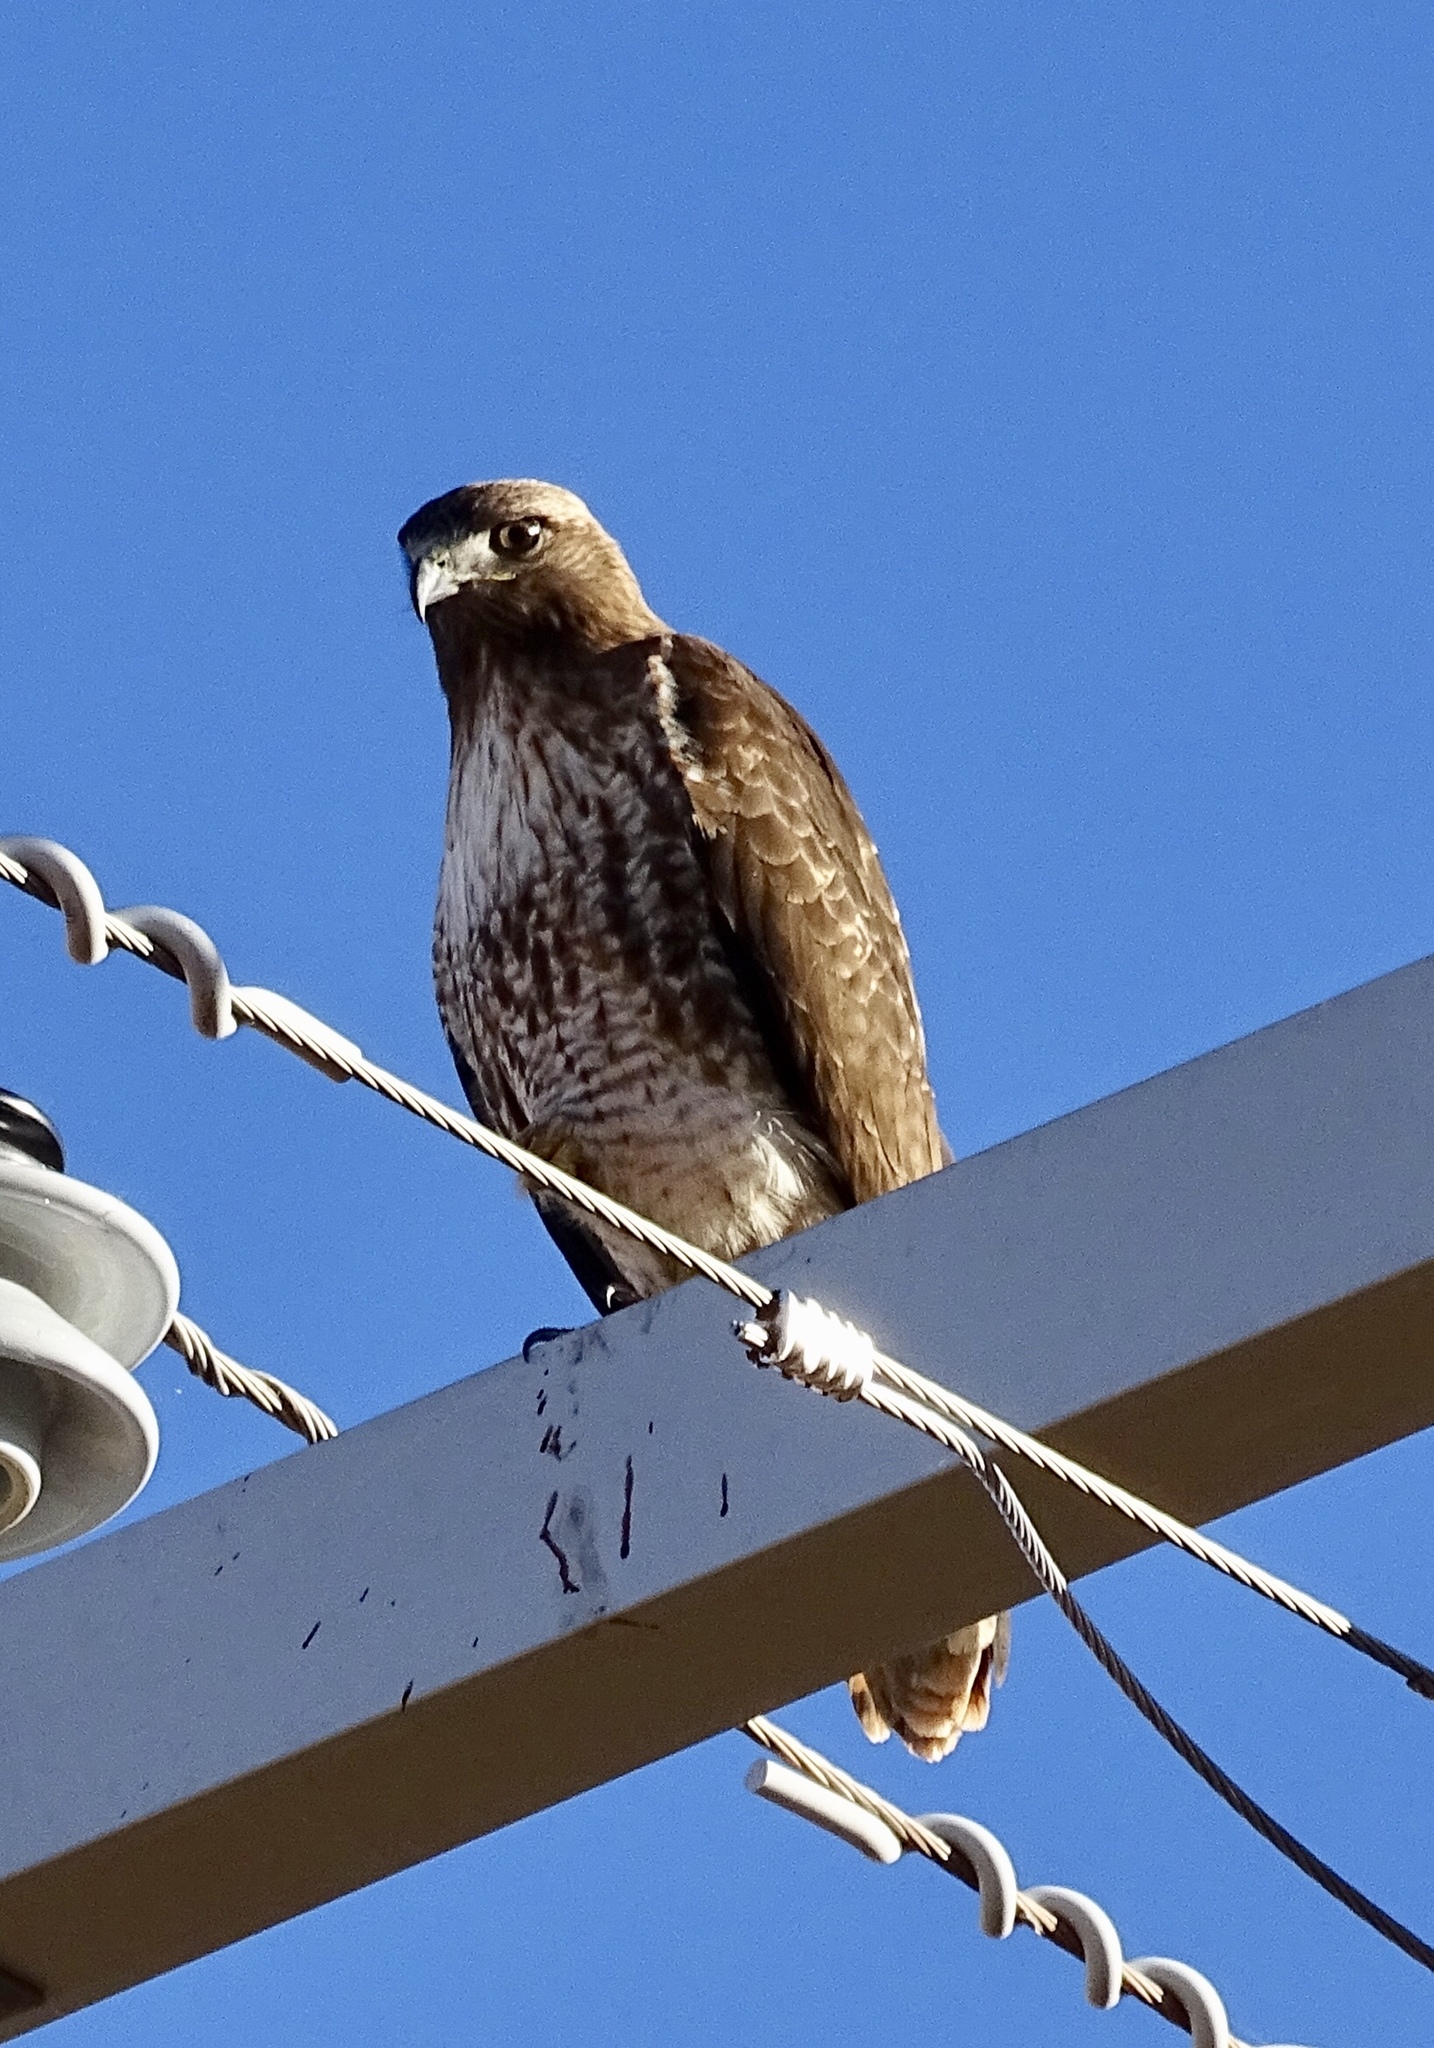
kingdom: Animalia
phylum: Chordata
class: Aves
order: Accipitriformes
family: Accipitridae
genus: Buteo
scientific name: Buteo jamaicensis
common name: Red-tailed hawk
